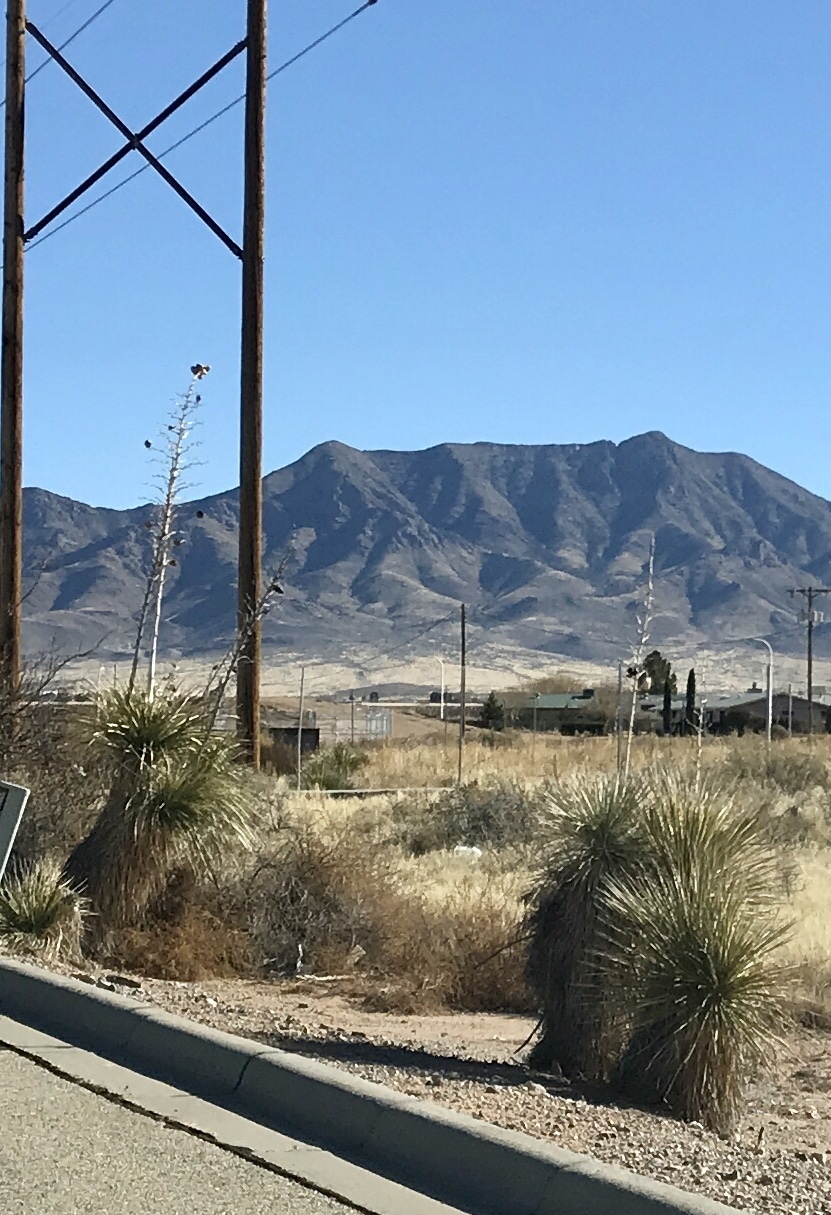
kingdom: Plantae
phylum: Tracheophyta
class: Liliopsida
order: Asparagales
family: Asparagaceae
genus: Yucca
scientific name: Yucca elata
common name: Palmella
